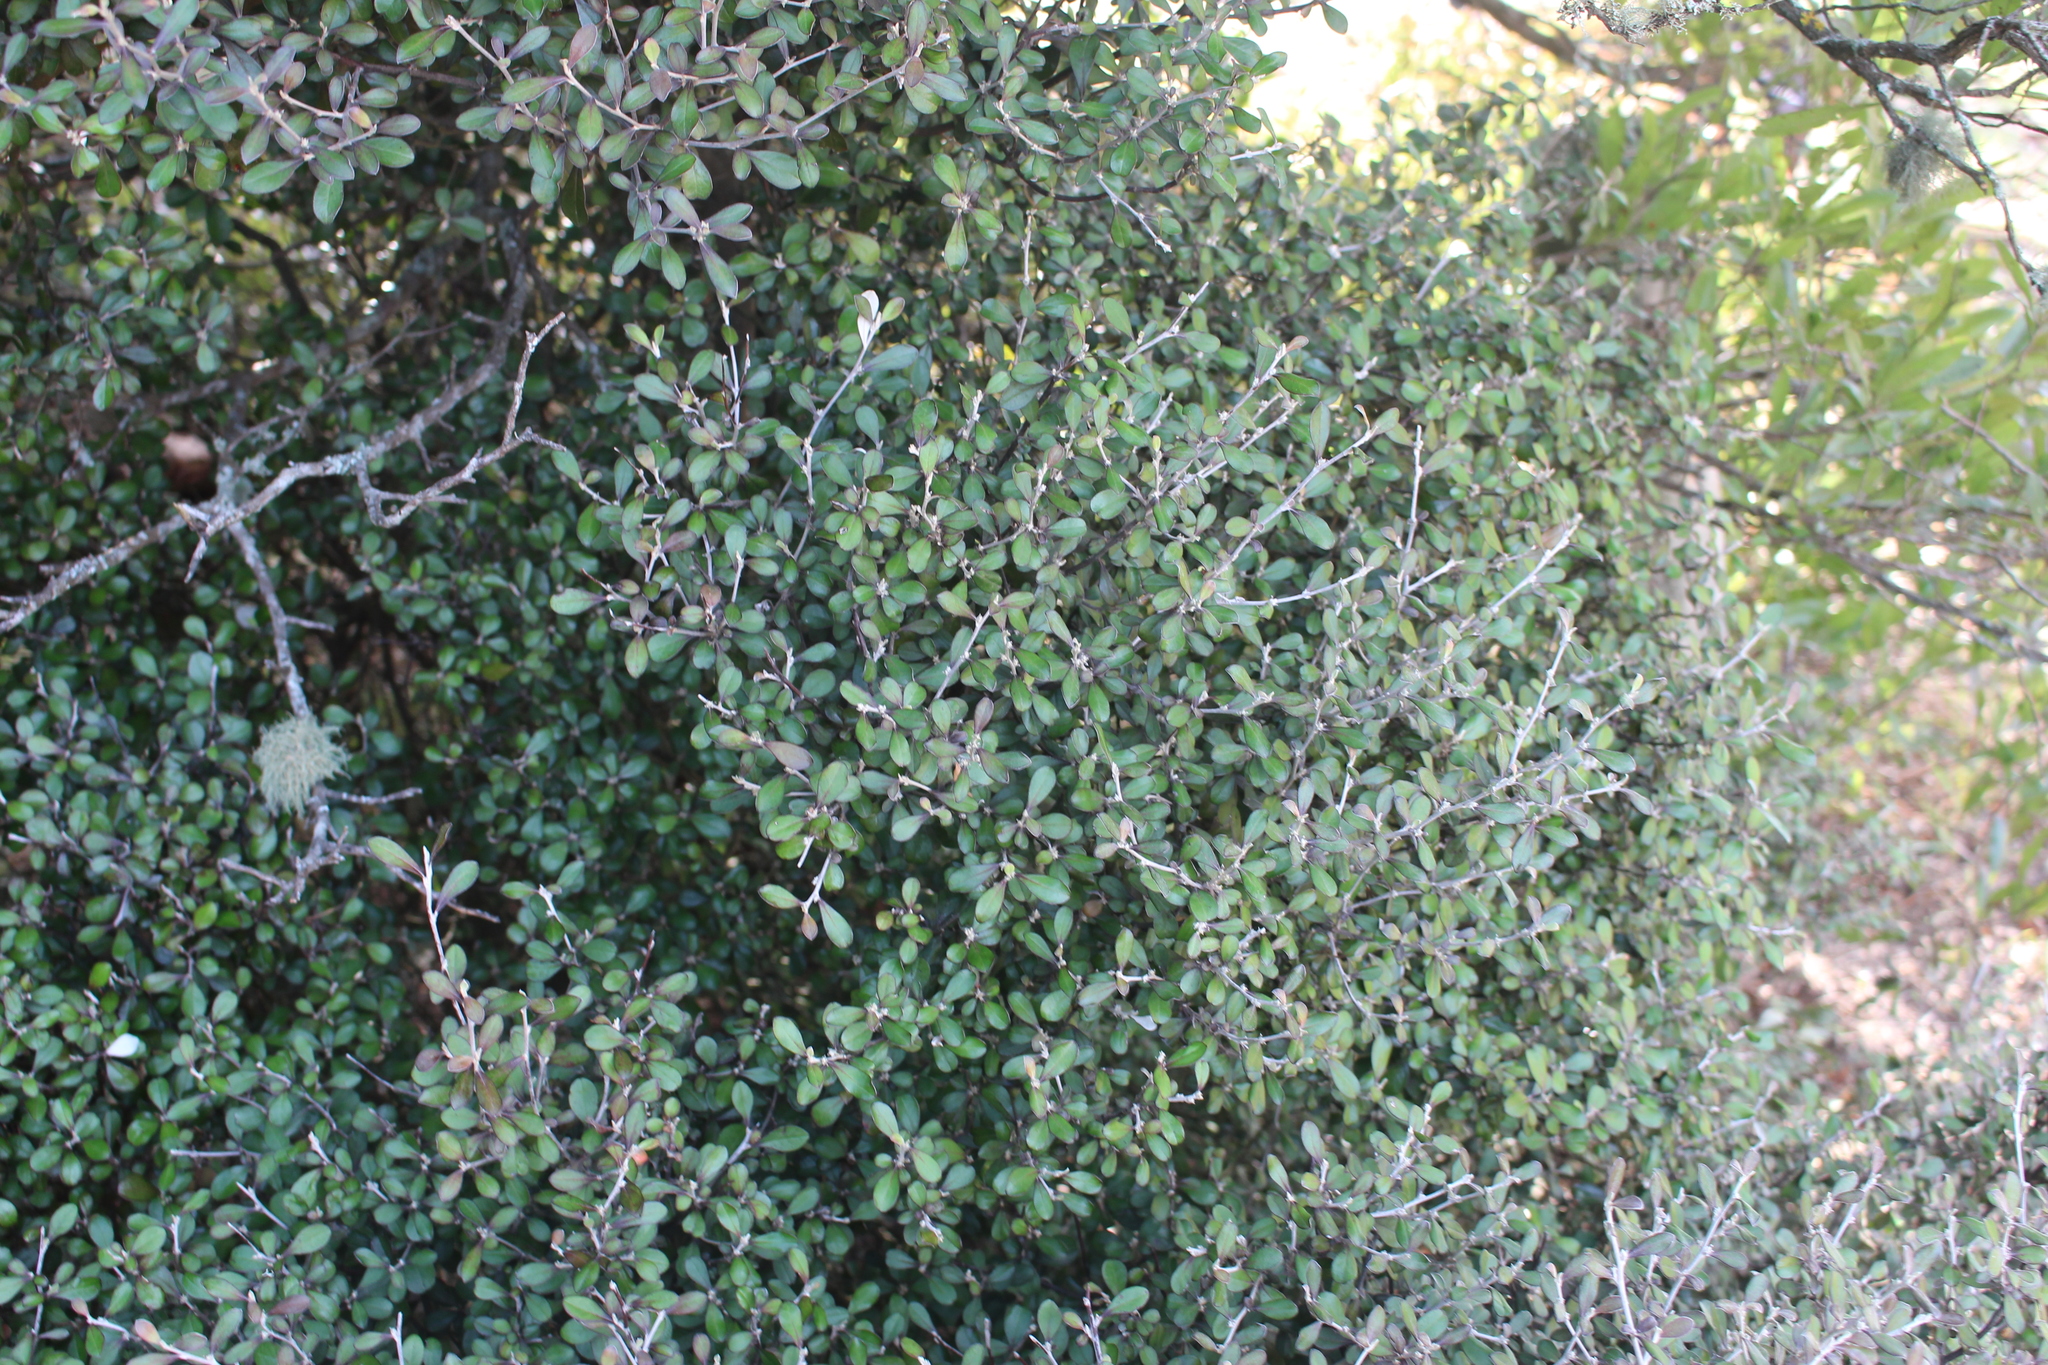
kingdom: Plantae
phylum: Tracheophyta
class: Magnoliopsida
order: Asterales
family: Argophyllaceae
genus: Corokia
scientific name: Corokia cotoneaster
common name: Wire nettingbush
